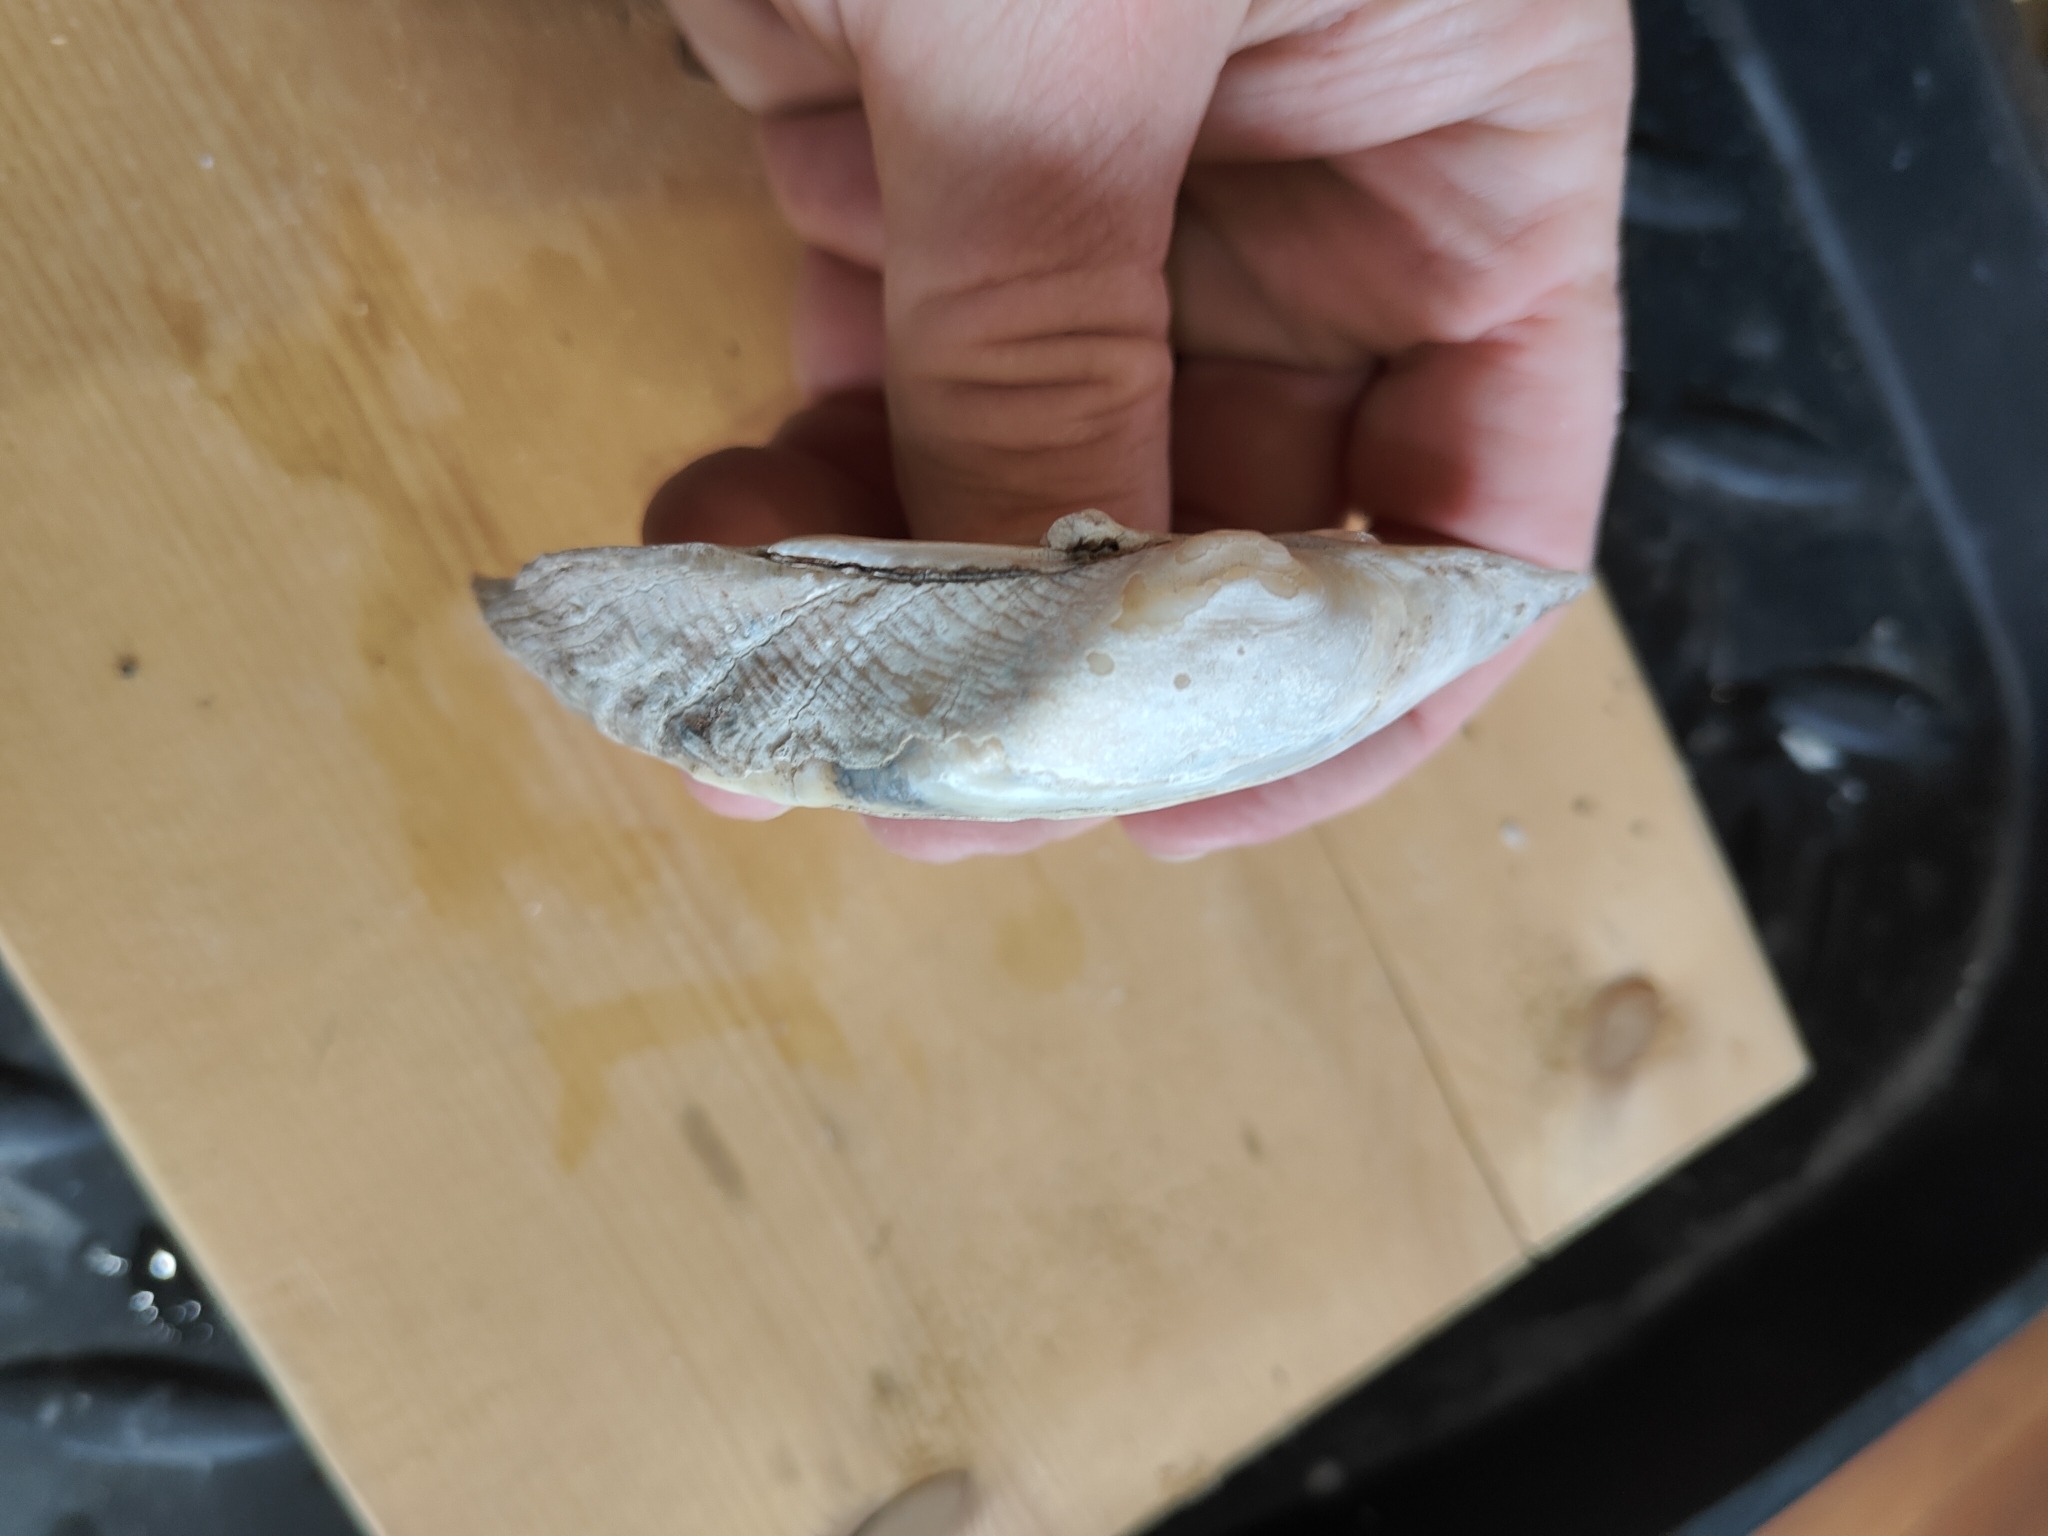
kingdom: Animalia
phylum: Mollusca
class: Bivalvia
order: Unionida
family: Unionidae
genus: Alasmidonta
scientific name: Alasmidonta marginata
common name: Elktoe
